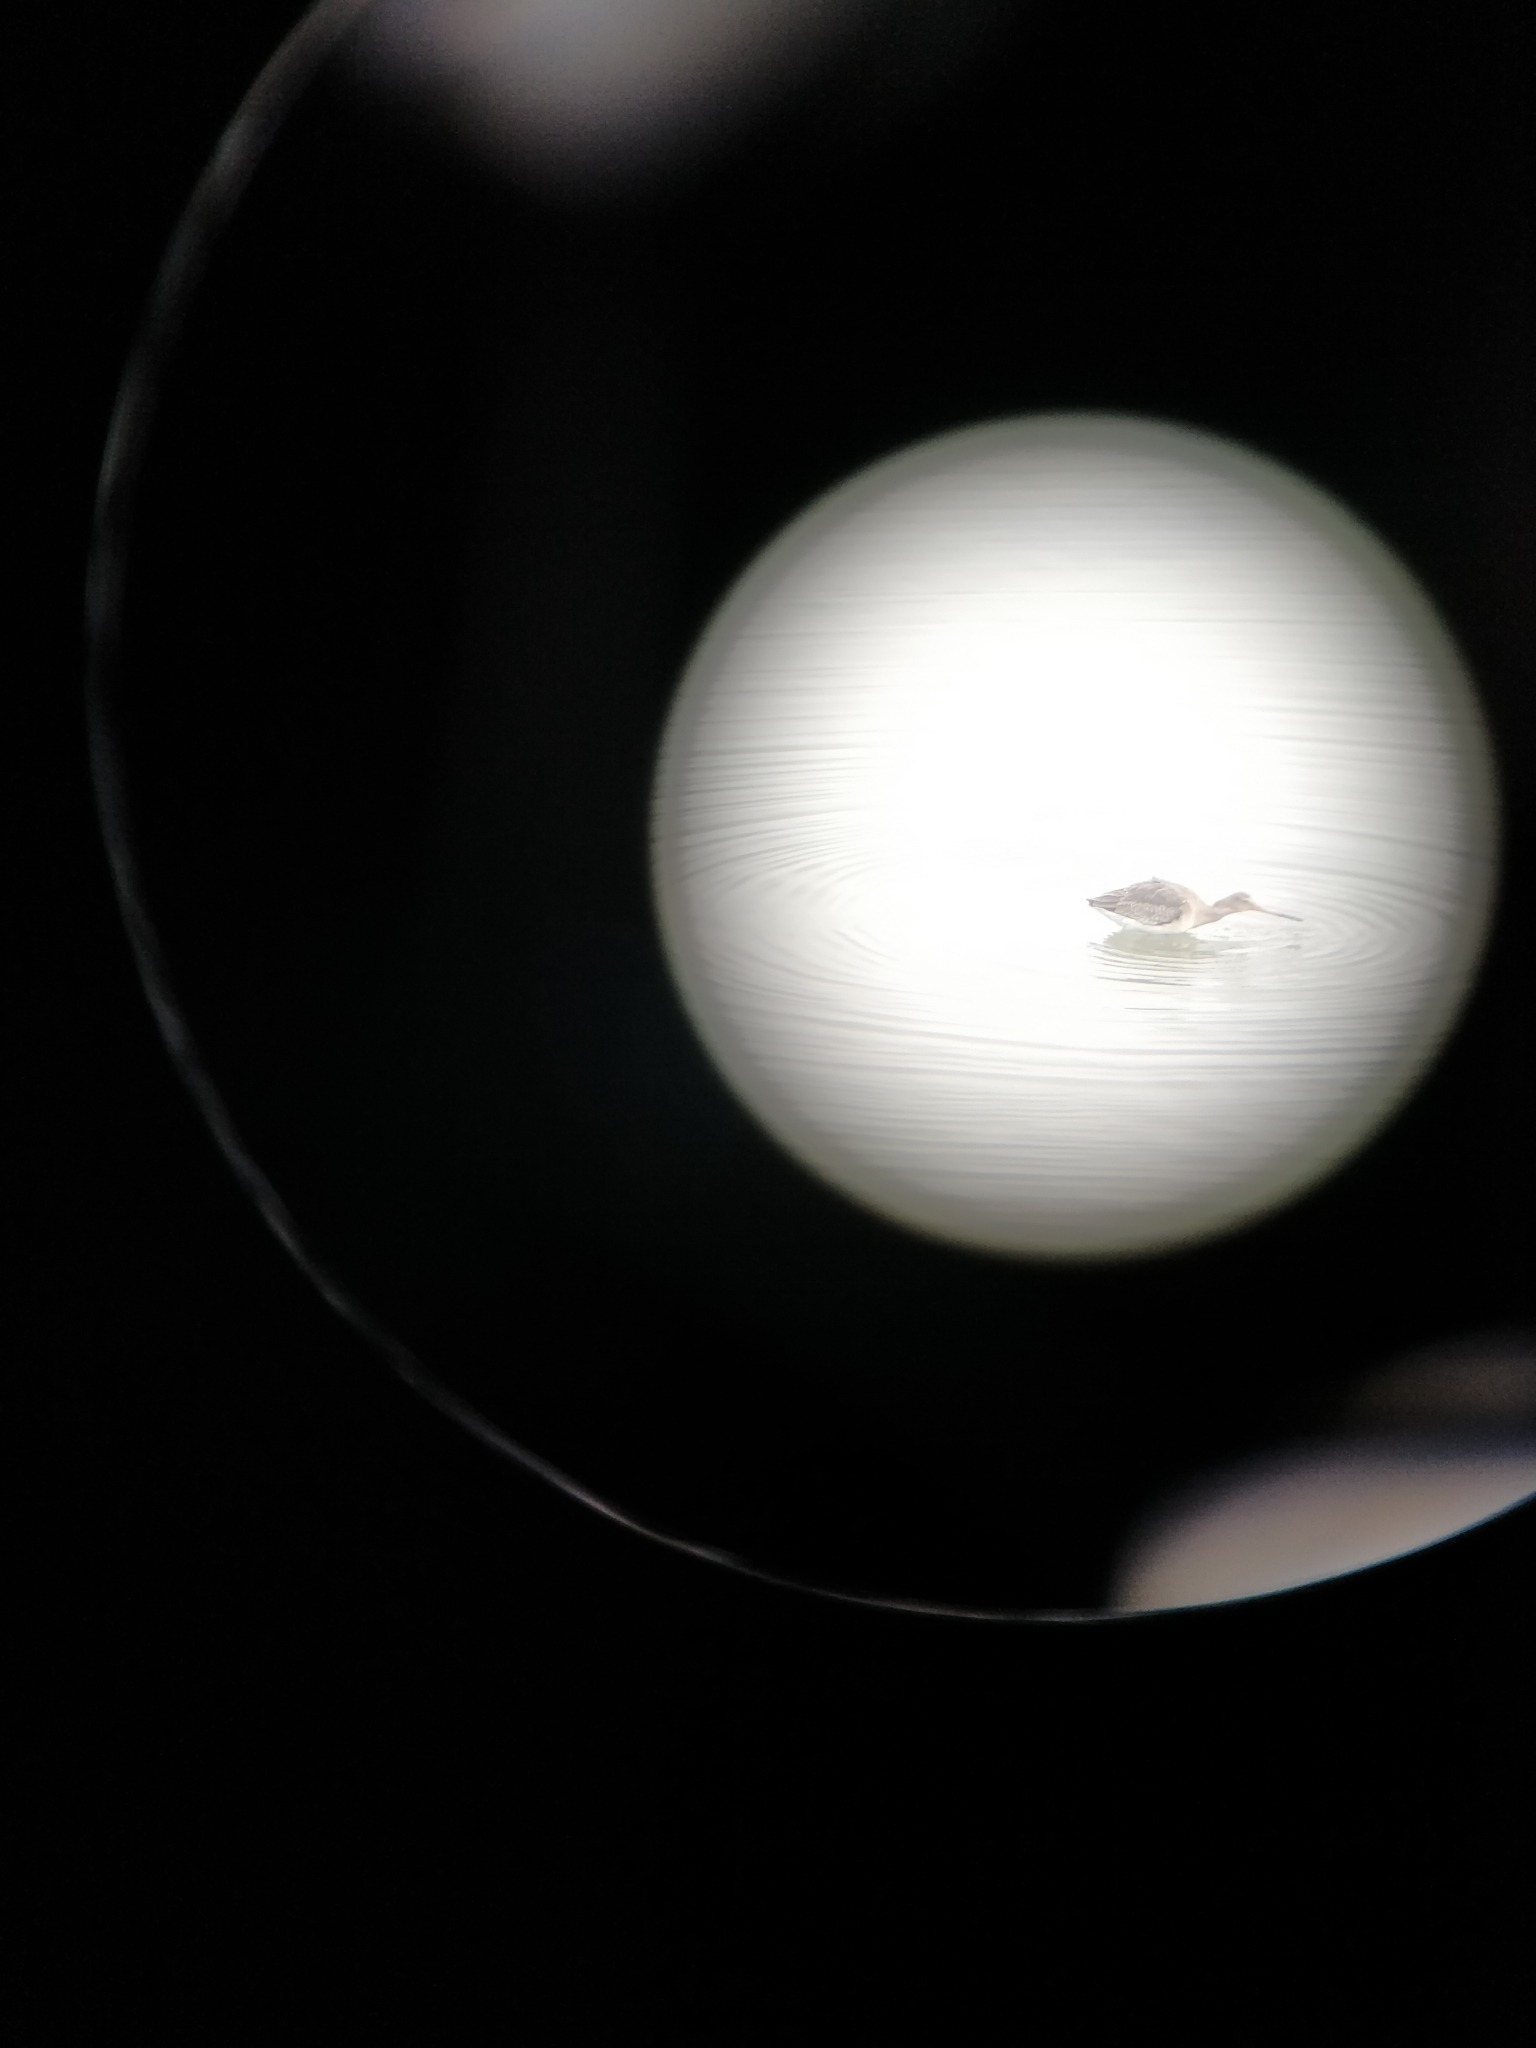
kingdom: Animalia
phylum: Chordata
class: Aves
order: Charadriiformes
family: Scolopacidae
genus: Limosa
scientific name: Limosa limosa
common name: Black-tailed godwit
